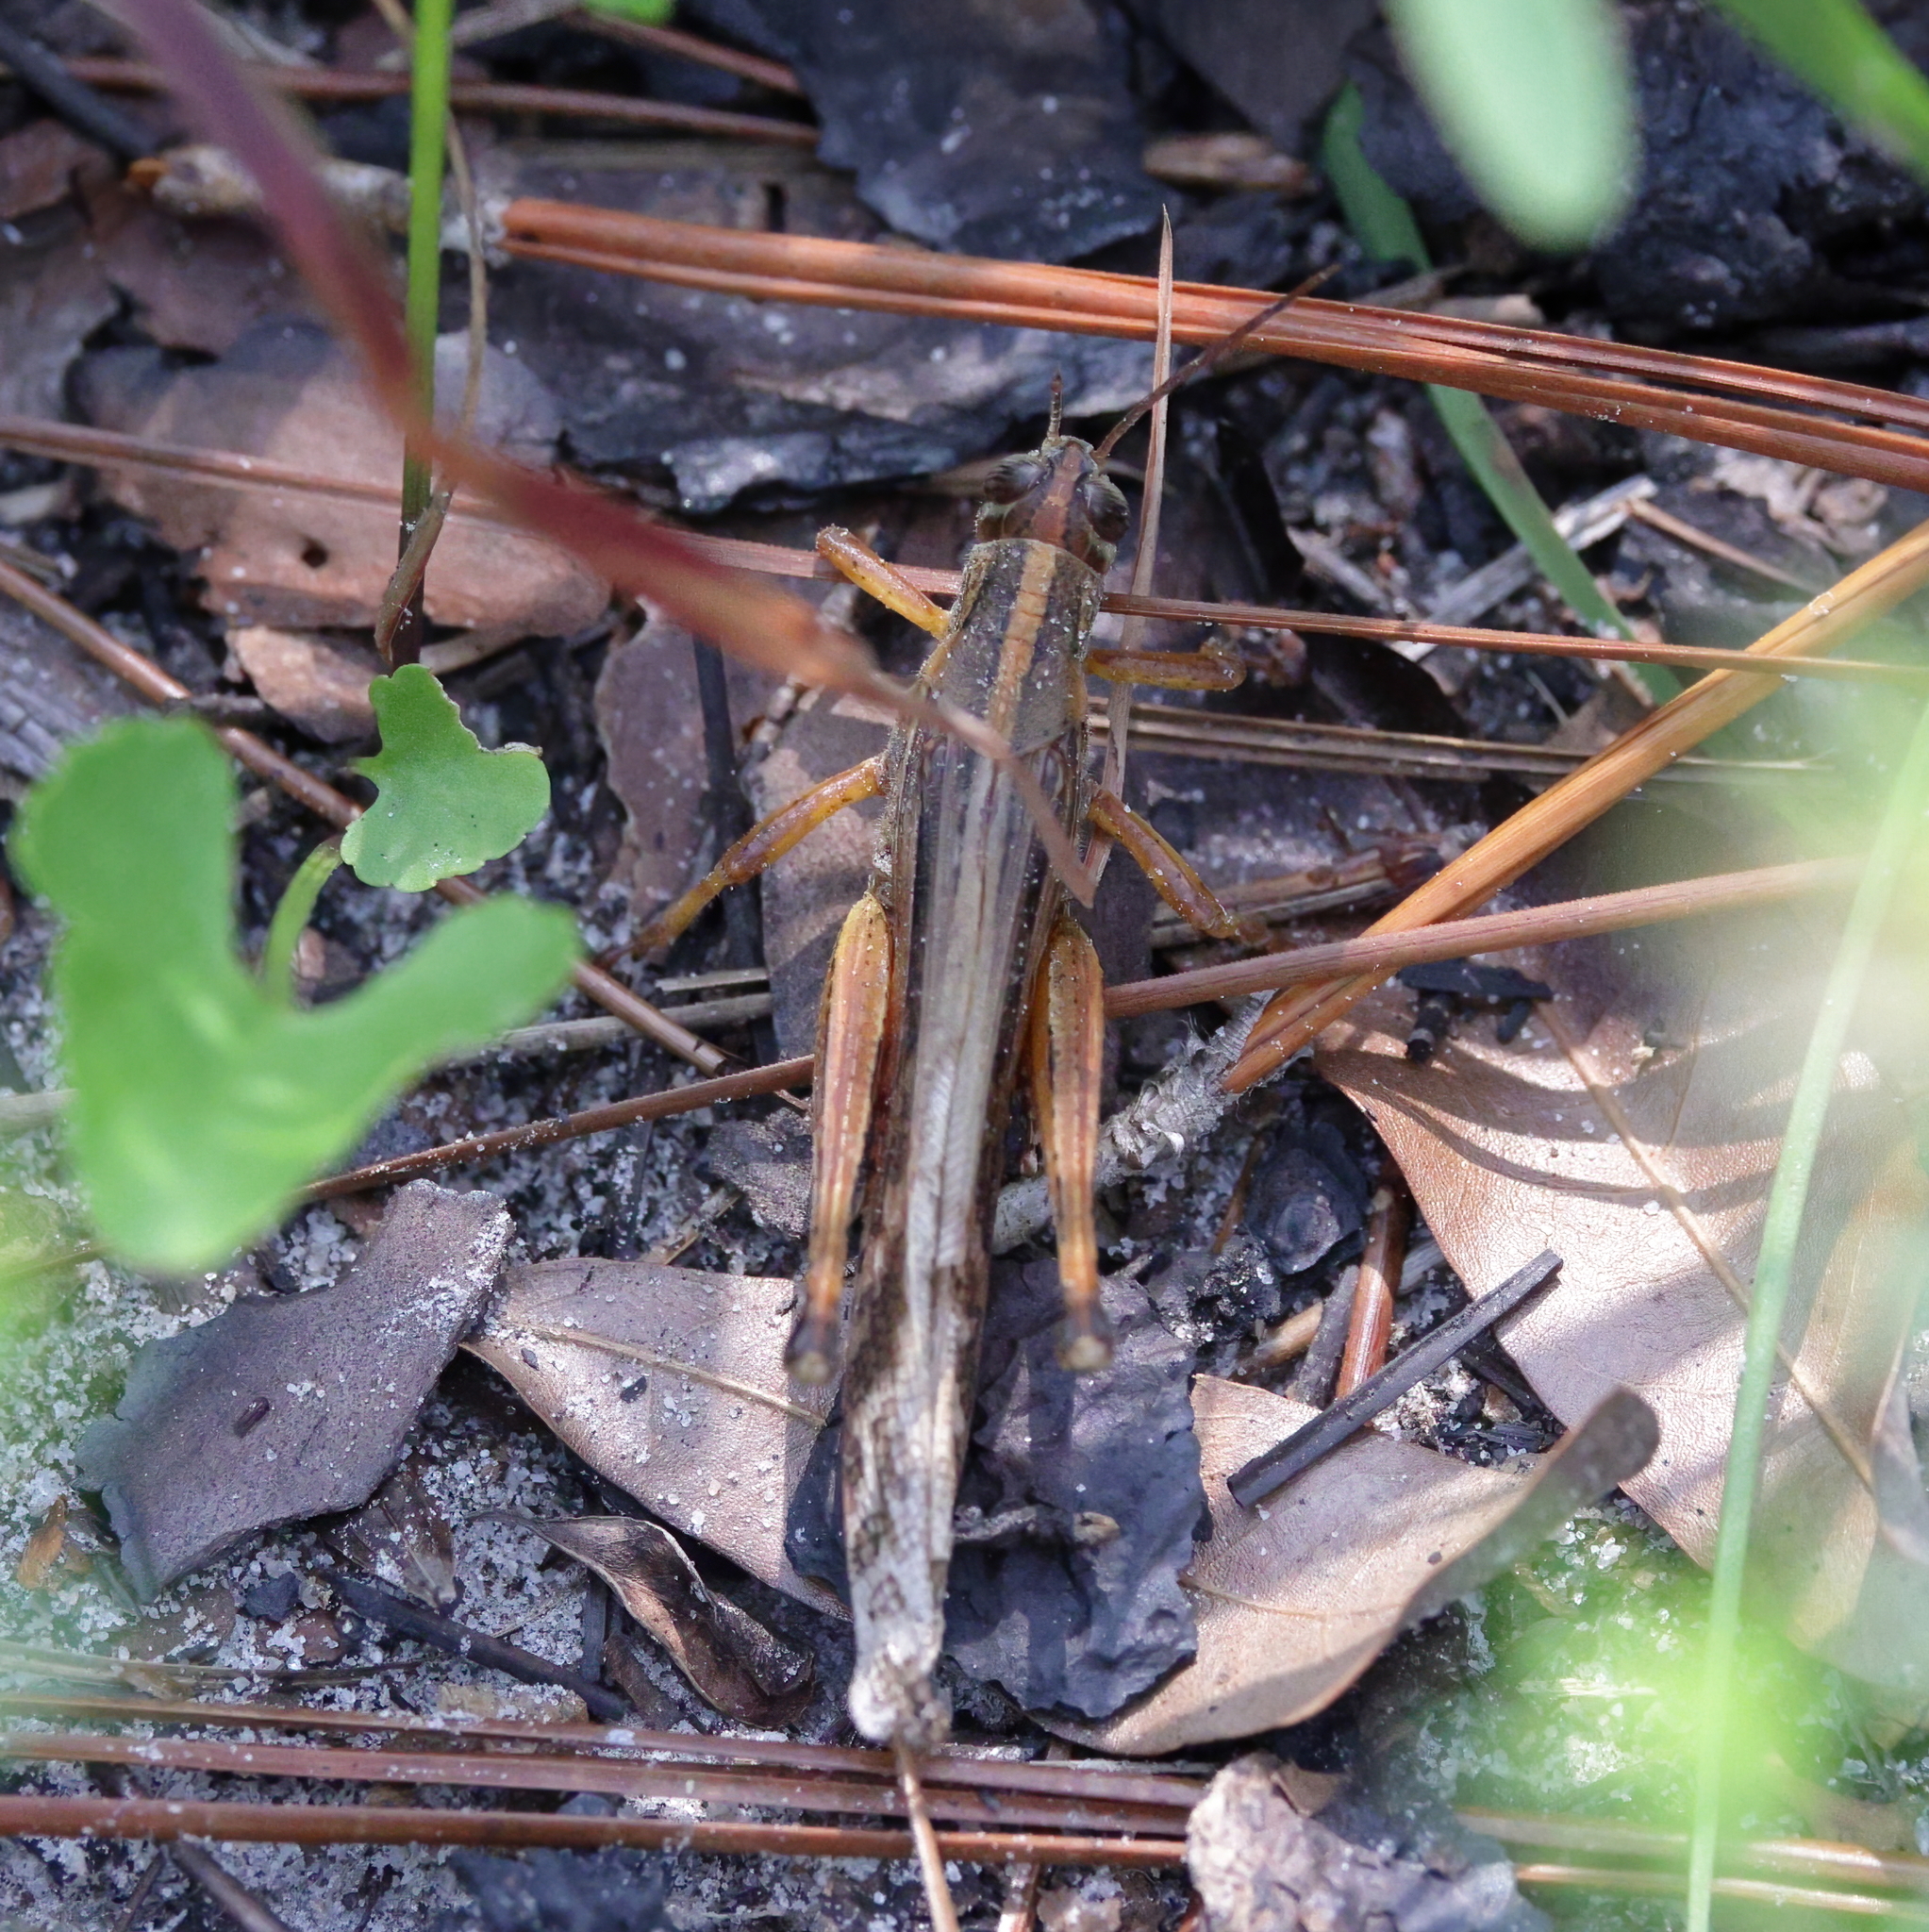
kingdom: Animalia
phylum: Arthropoda
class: Insecta
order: Orthoptera
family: Acrididae
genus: Schistocerca
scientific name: Schistocerca americana
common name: American bird locust
